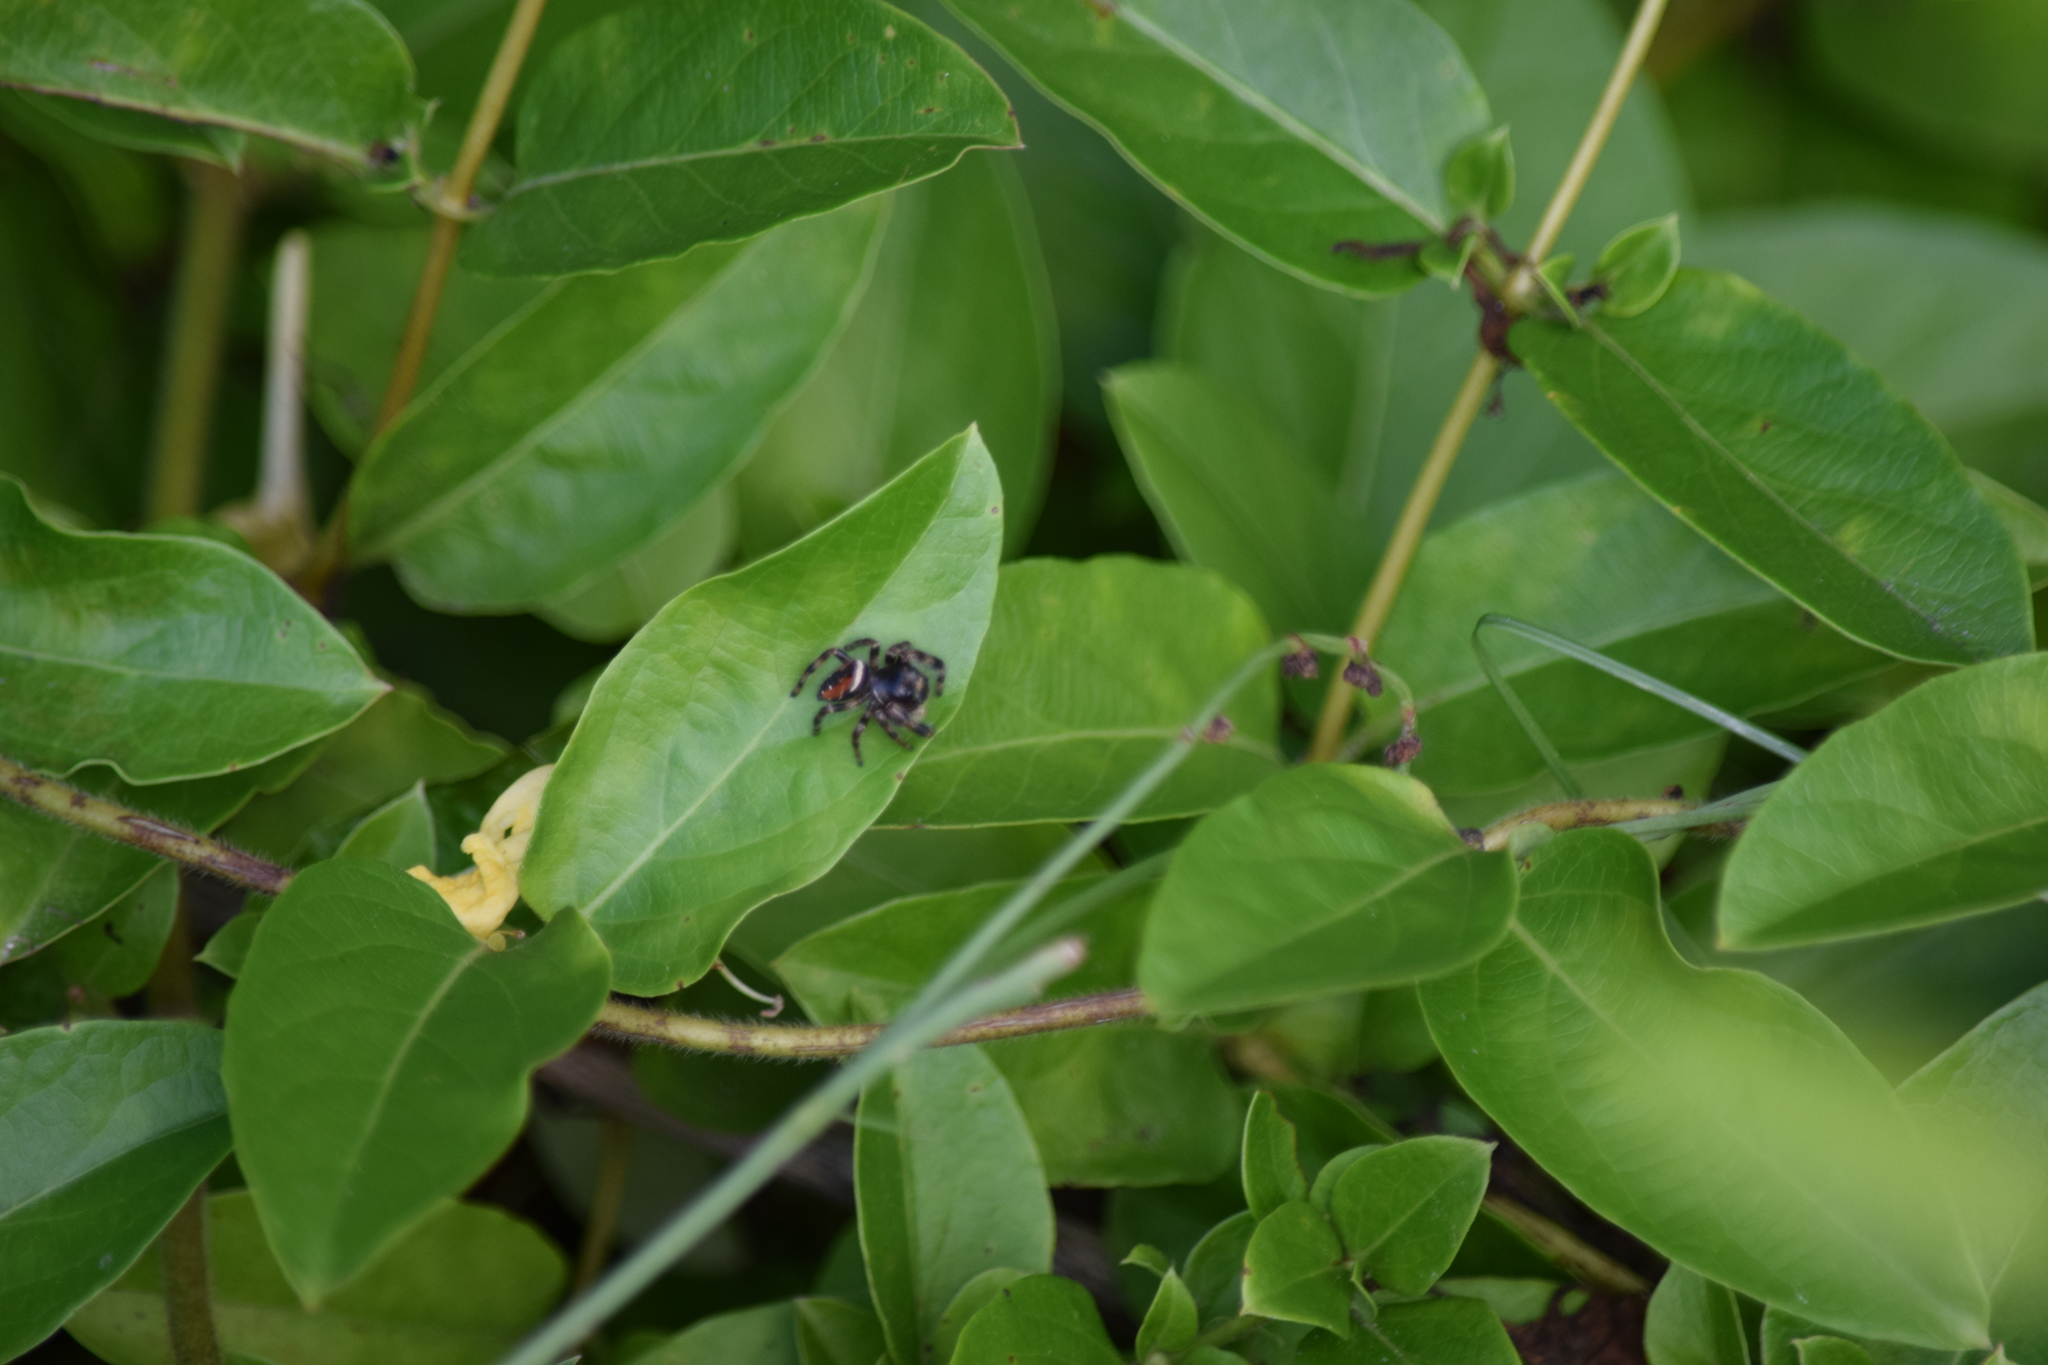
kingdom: Animalia
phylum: Arthropoda
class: Arachnida
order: Araneae
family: Salticidae
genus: Phidippus
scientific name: Phidippus clarus
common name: Brilliant jumping spider
